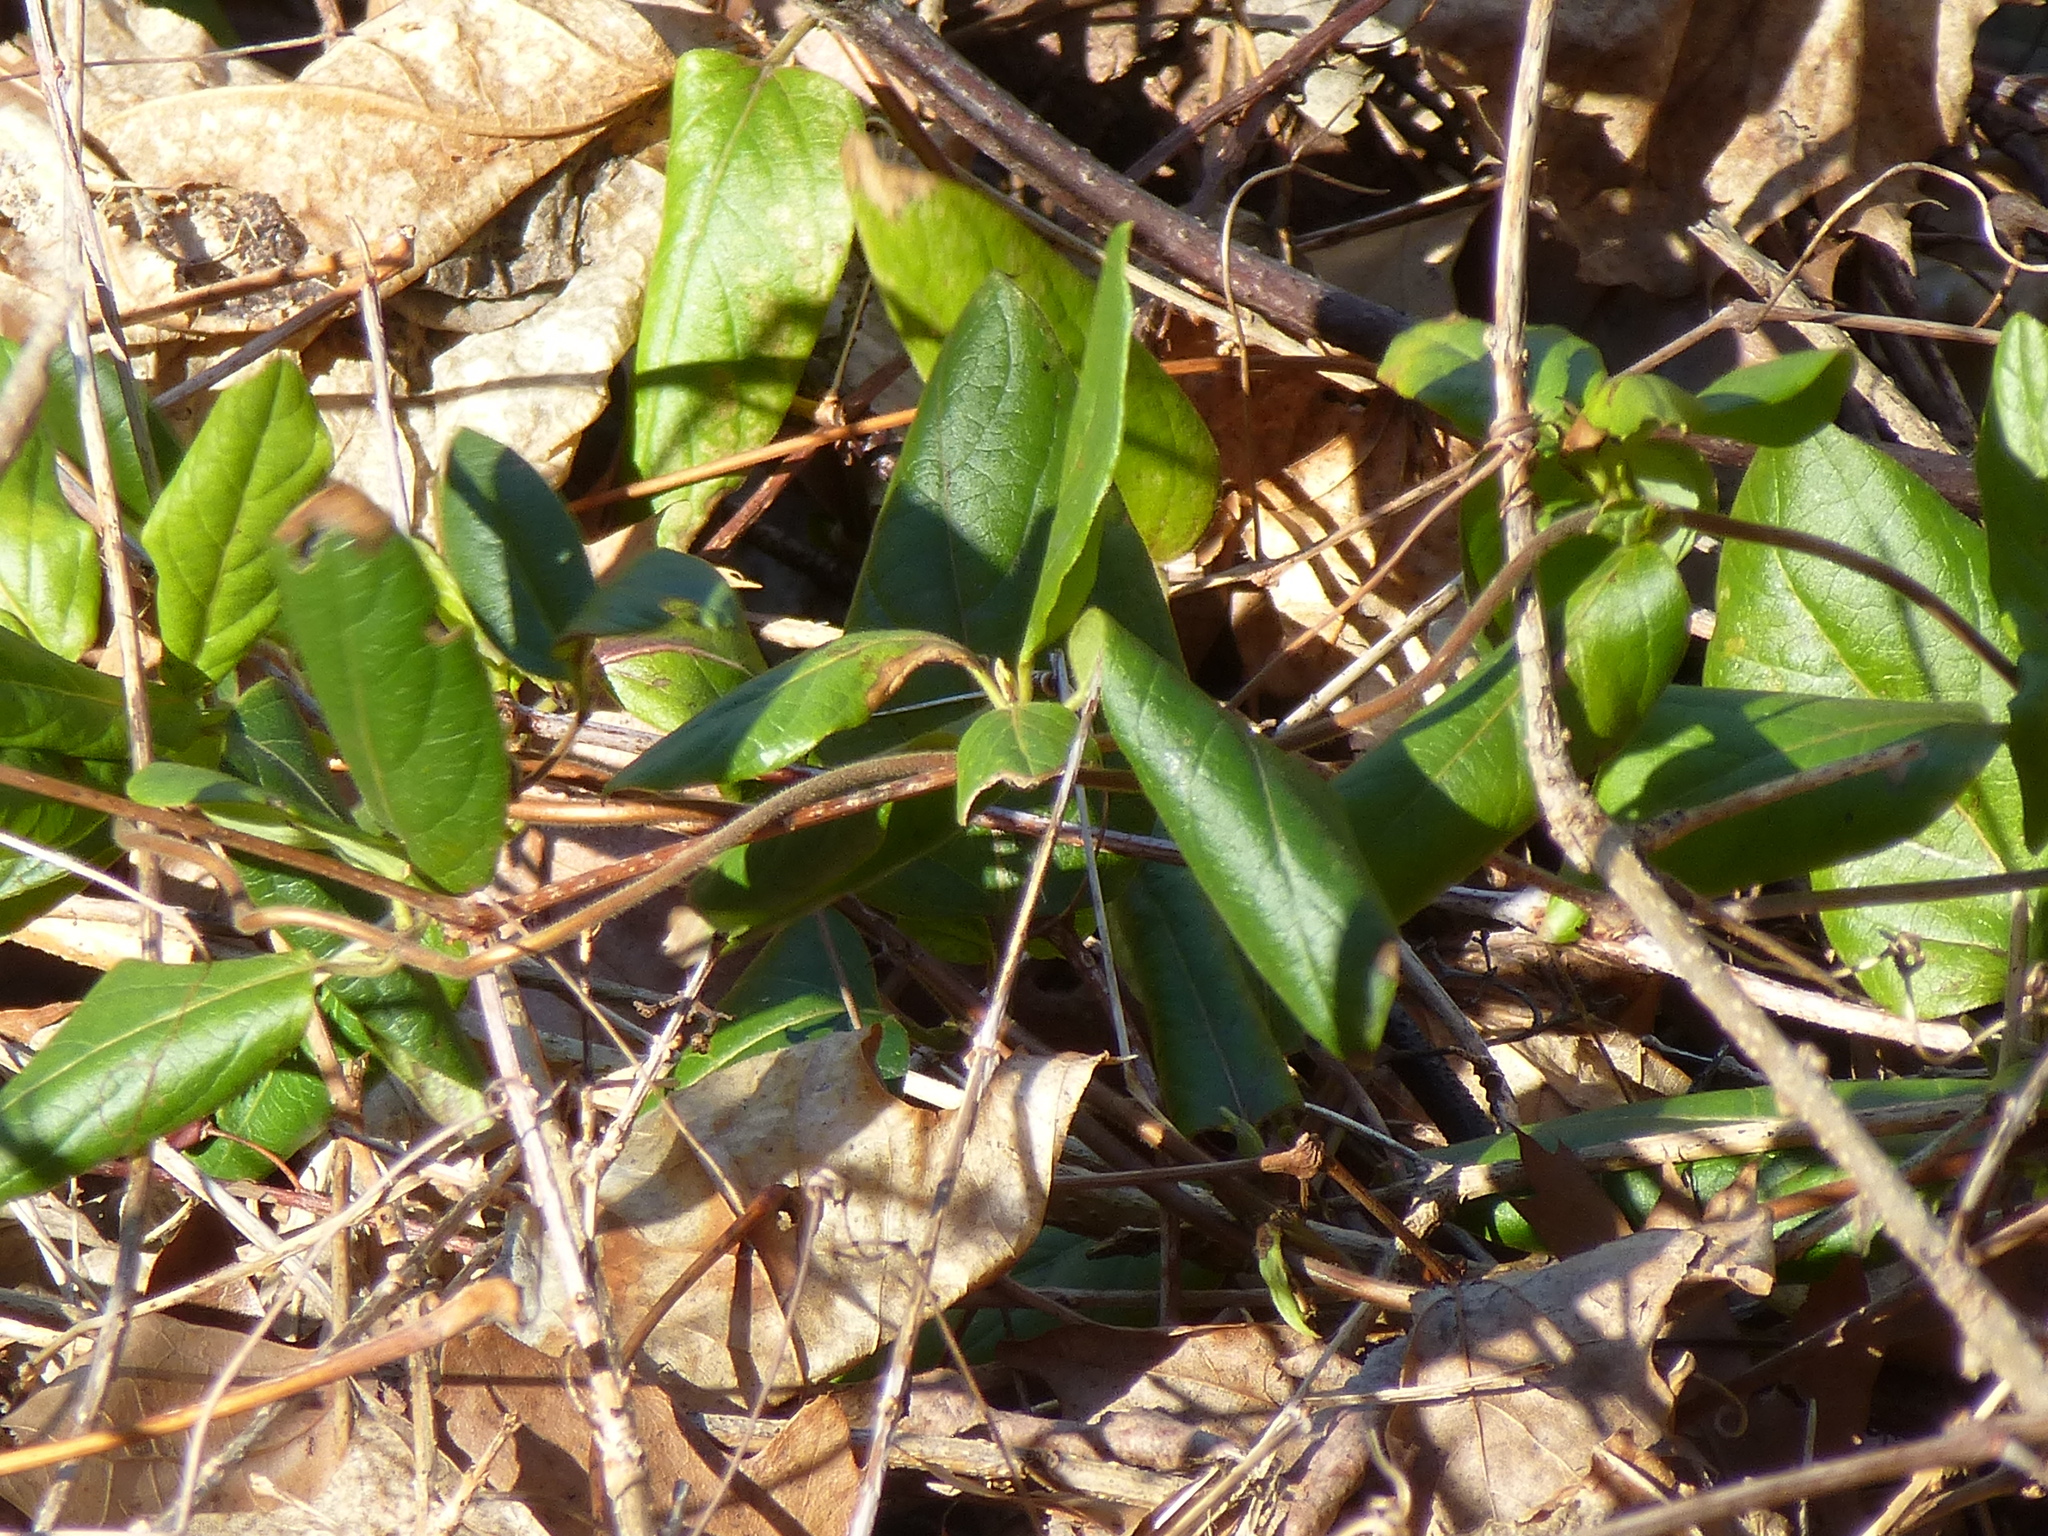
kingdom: Plantae
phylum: Tracheophyta
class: Liliopsida
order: Alismatales
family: Araceae
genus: Arum
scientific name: Arum italicum
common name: Italian lords-and-ladies
